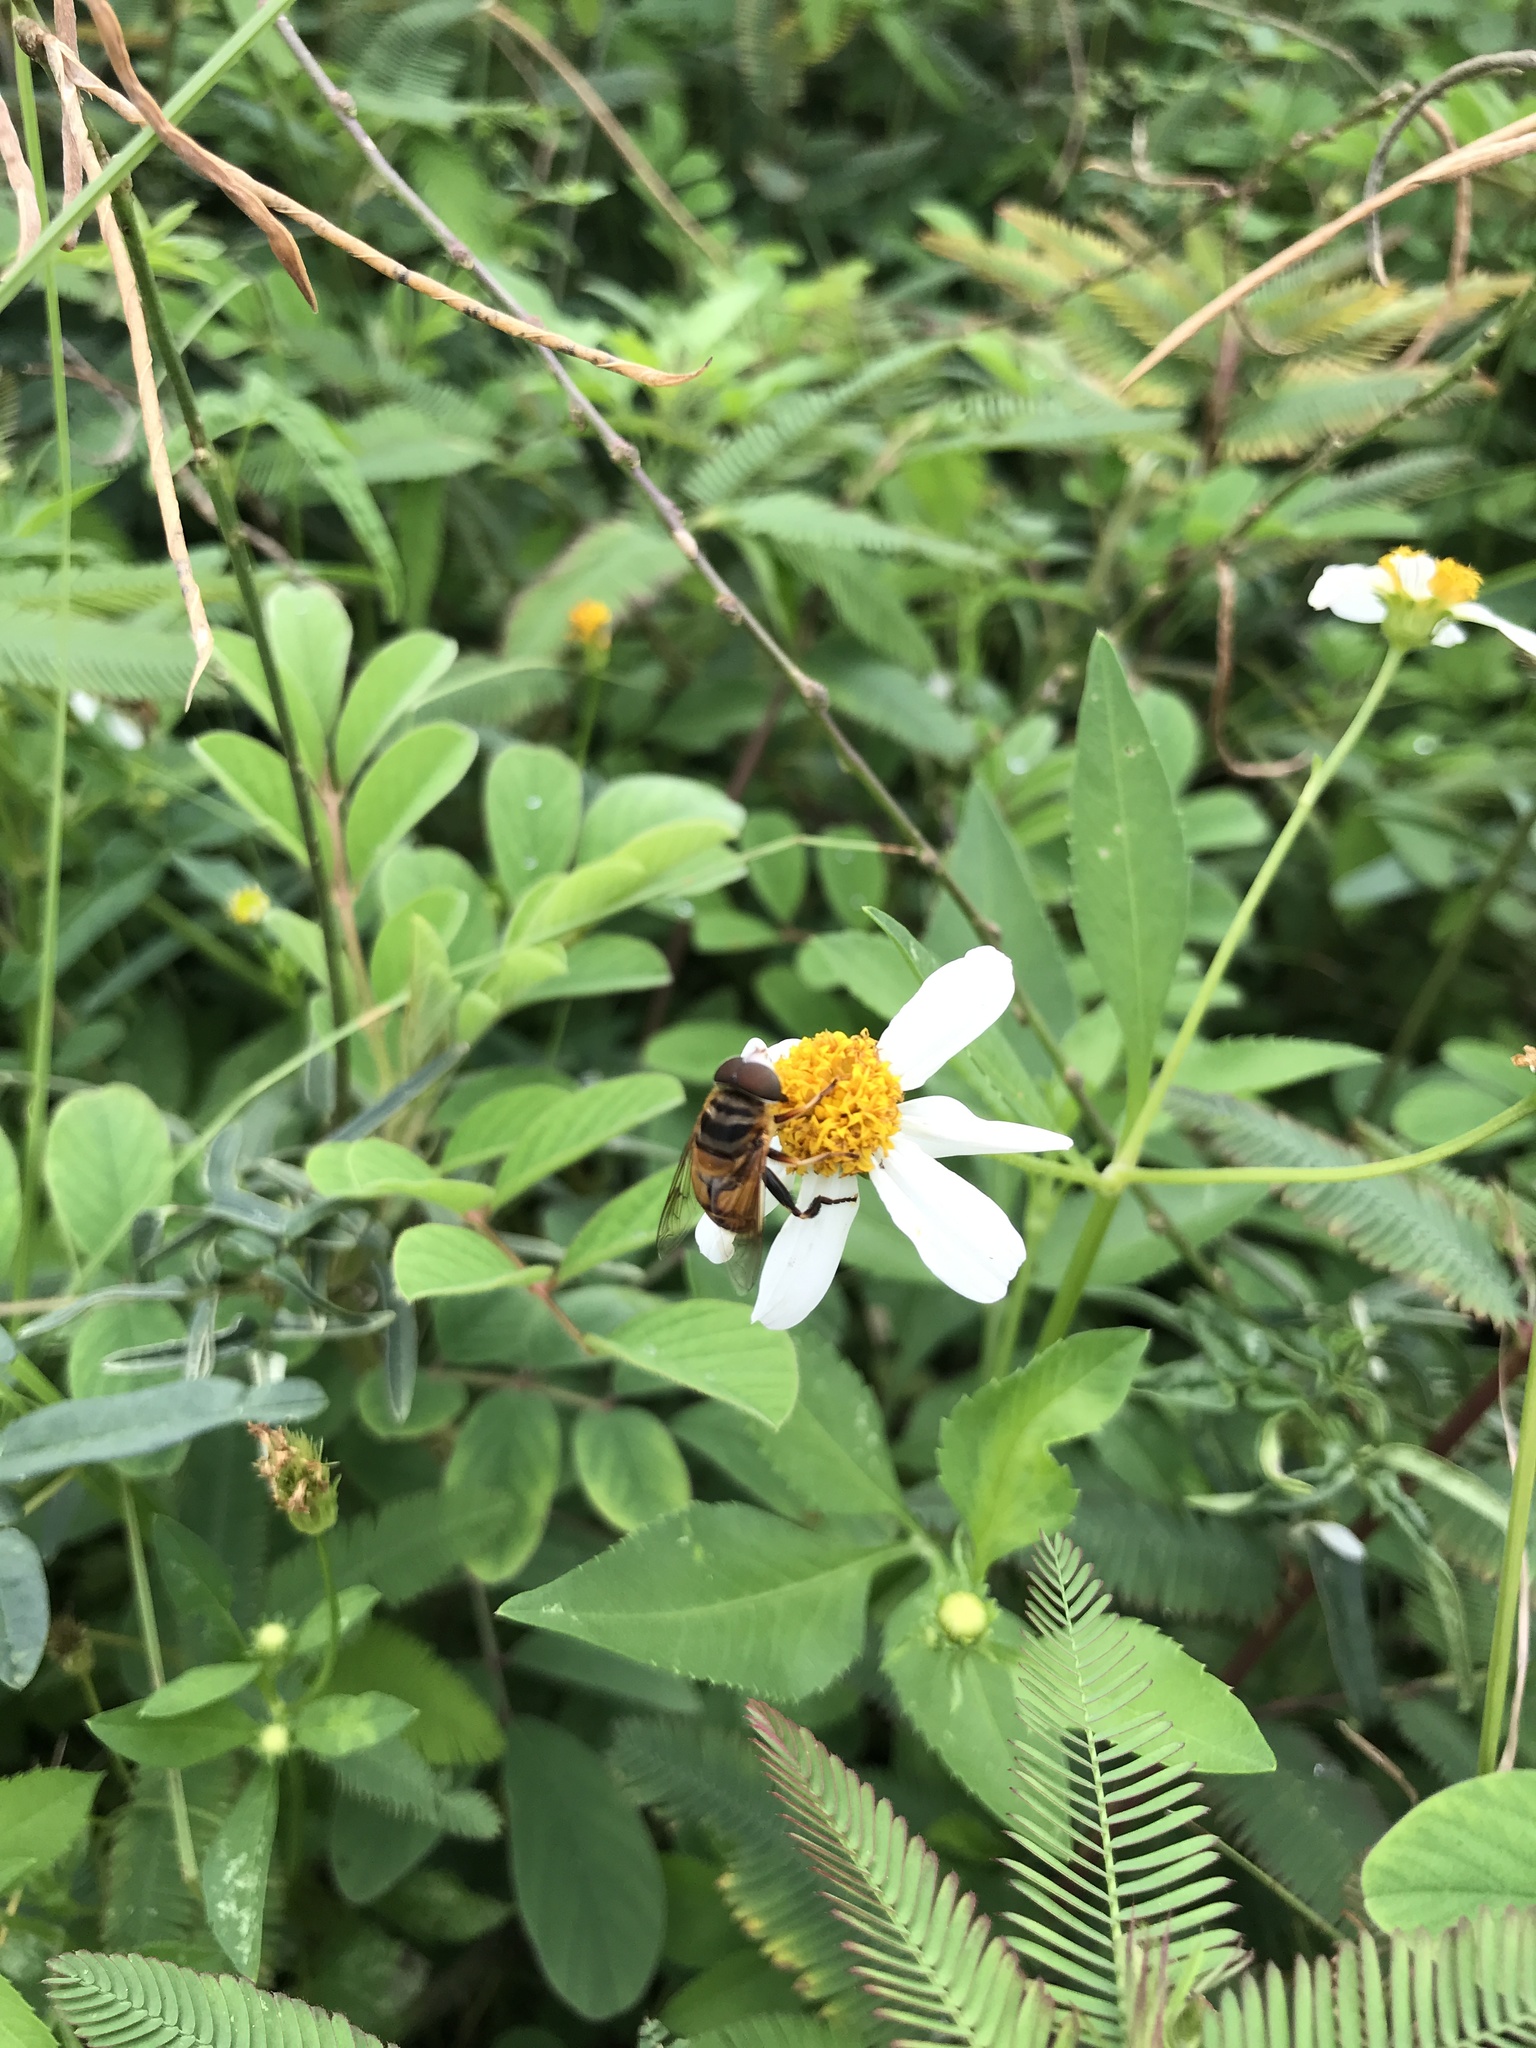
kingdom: Animalia
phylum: Arthropoda
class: Insecta
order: Diptera
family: Syrphidae
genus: Palpada
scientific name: Palpada vinetorum
